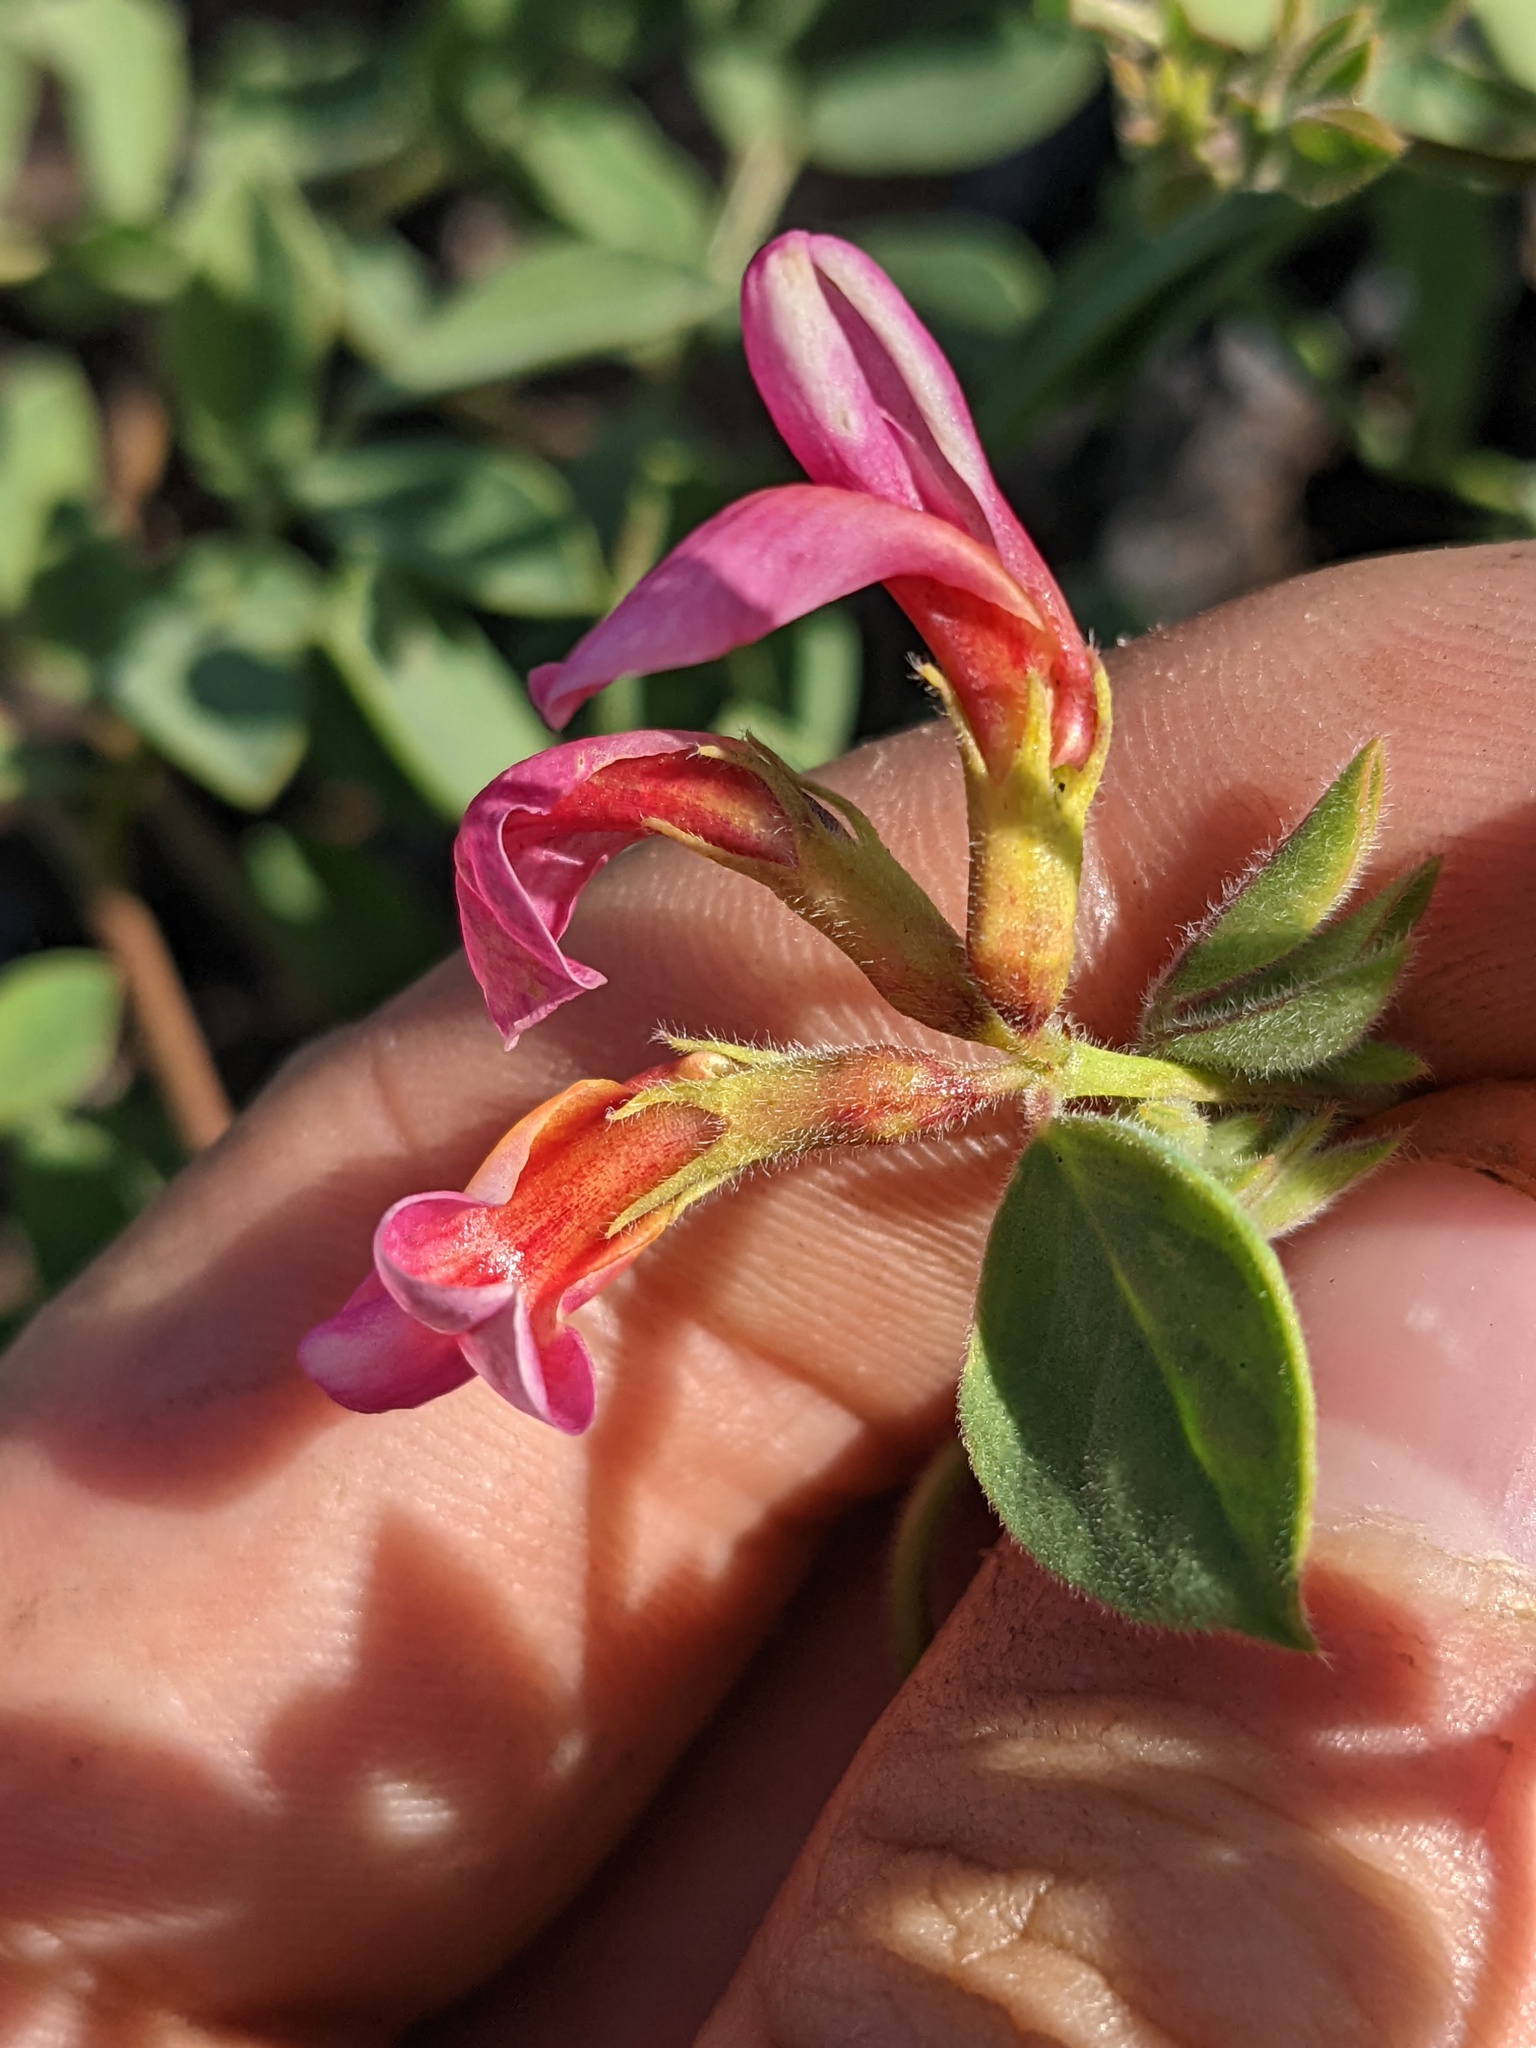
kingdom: Plantae
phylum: Tracheophyta
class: Magnoliopsida
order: Fabales
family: Fabaceae
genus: Acmispon
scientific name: Acmispon grandiflorus
